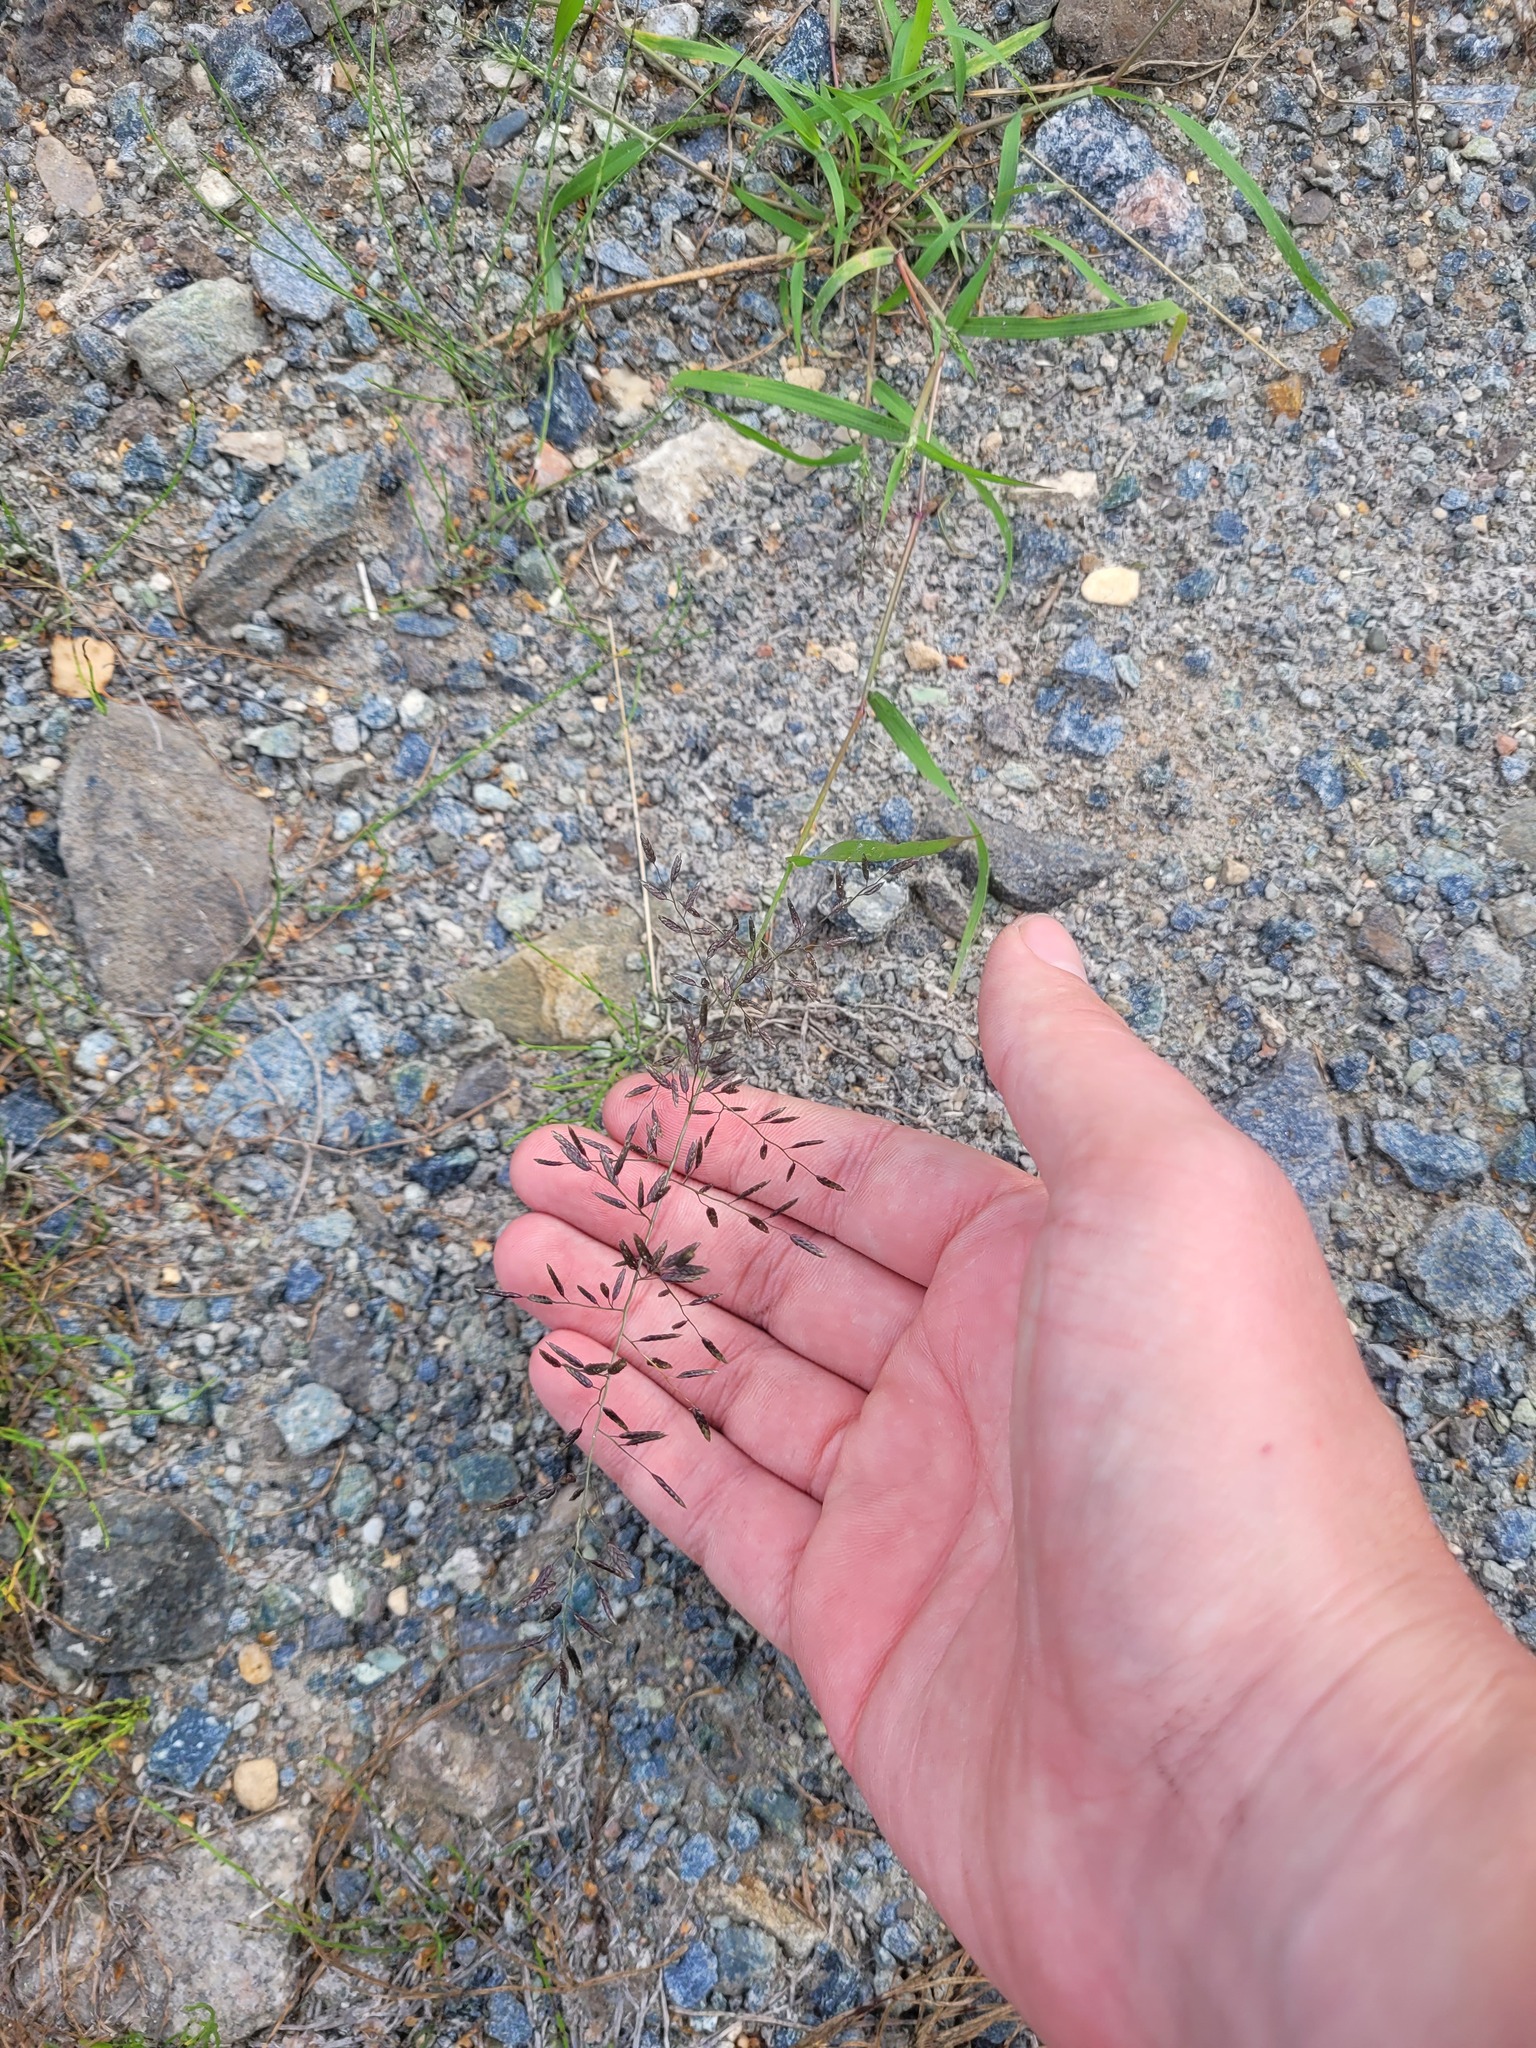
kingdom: Plantae
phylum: Tracheophyta
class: Liliopsida
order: Poales
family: Poaceae
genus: Eragrostis
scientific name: Eragrostis minor
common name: Small love-grass
